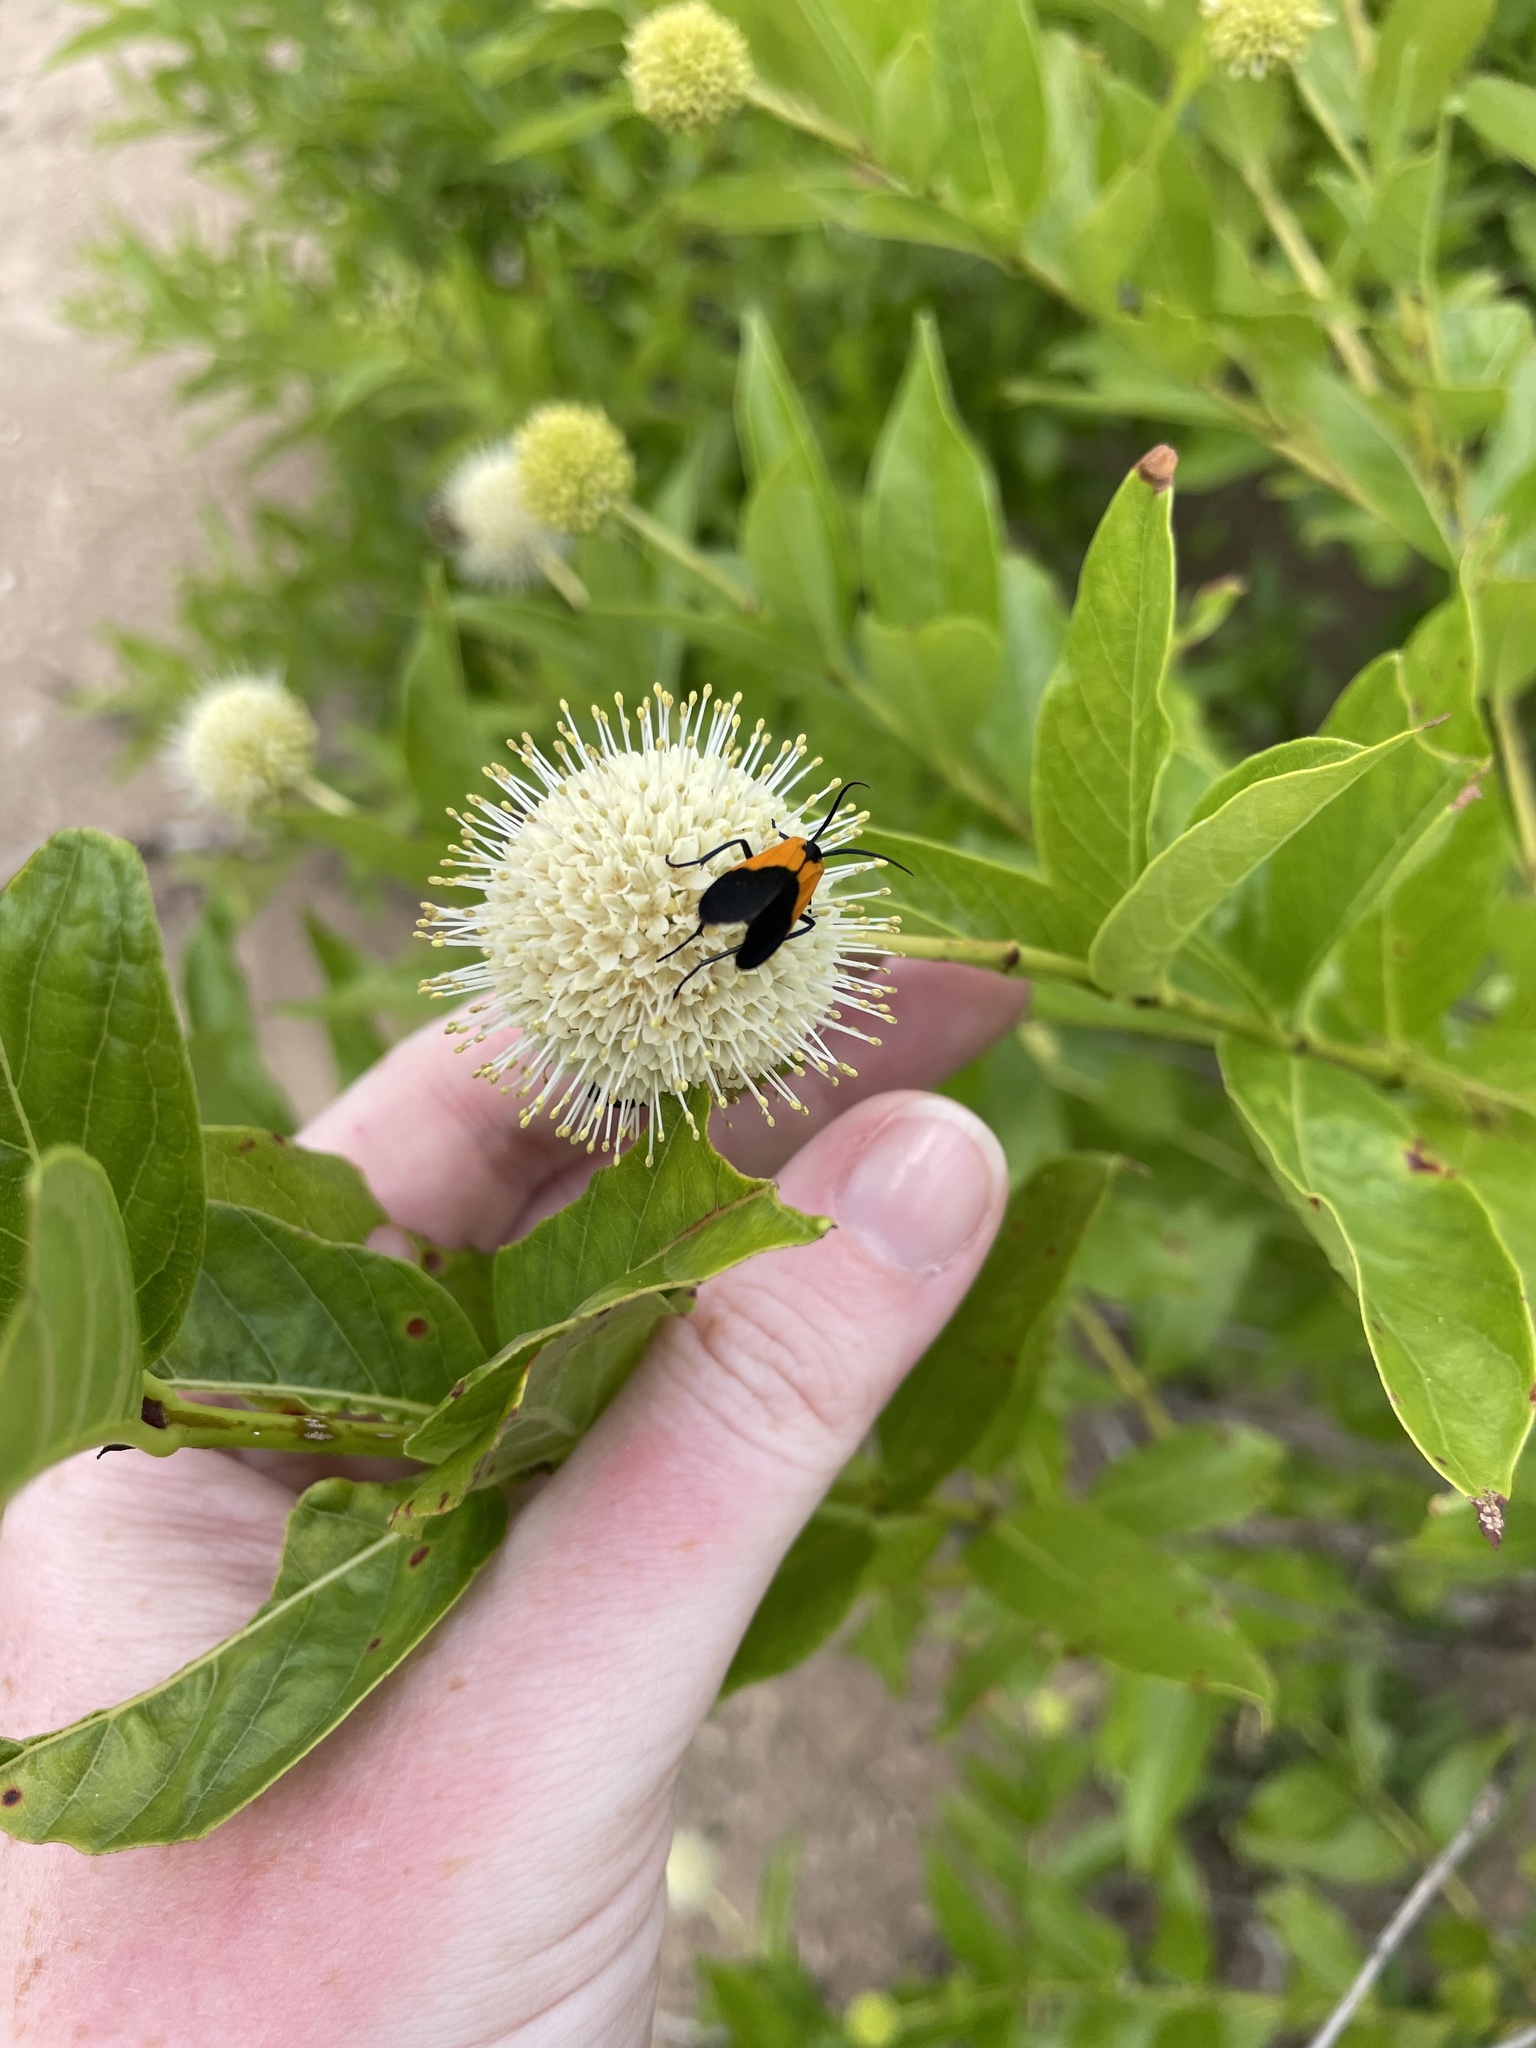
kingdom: Animalia
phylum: Arthropoda
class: Insecta
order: Lepidoptera
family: Erebidae
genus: Lycomorpha
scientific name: Lycomorpha pholus
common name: Black-and-yellow lichen moth
